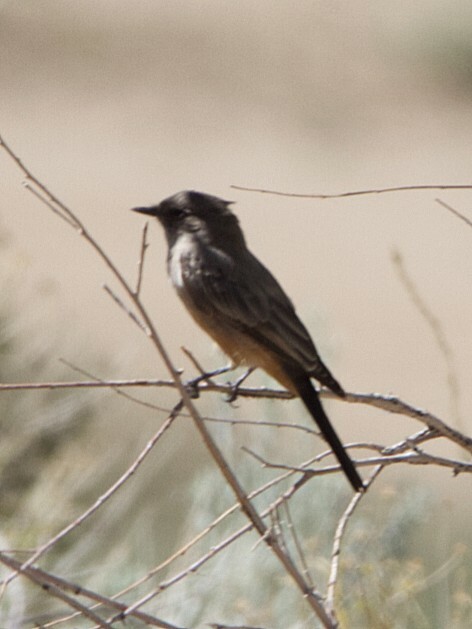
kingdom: Animalia
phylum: Chordata
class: Aves
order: Passeriformes
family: Tyrannidae
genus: Sayornis
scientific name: Sayornis saya
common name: Say's phoebe
